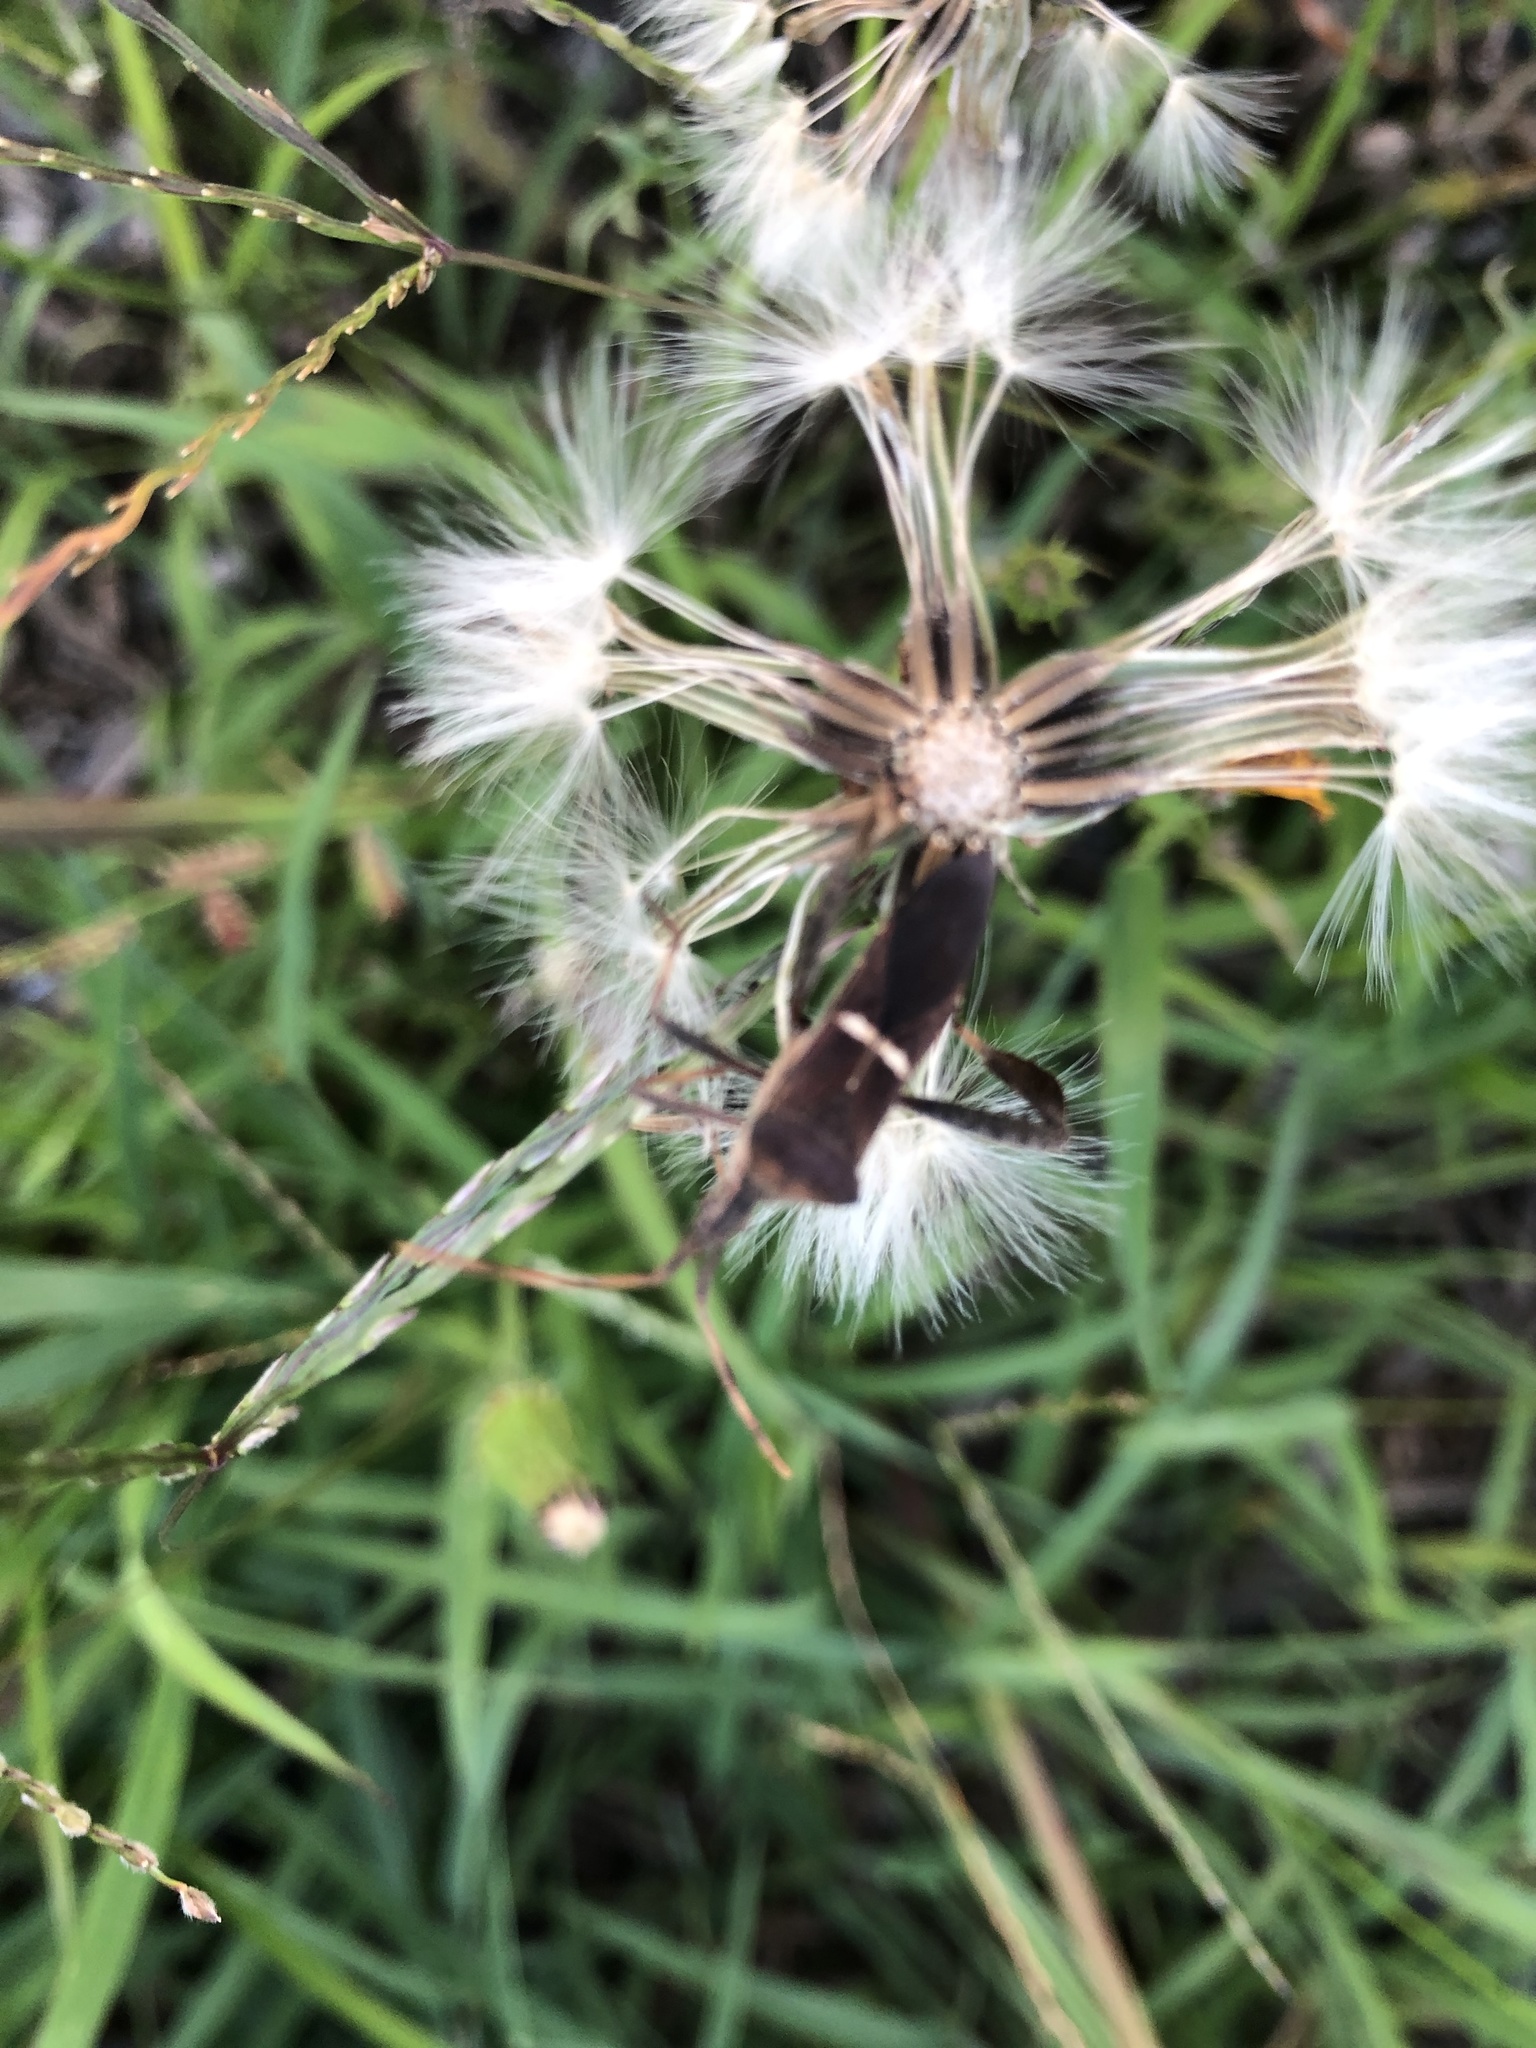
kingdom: Animalia
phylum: Arthropoda
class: Insecta
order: Hemiptera
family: Coreidae
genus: Leptoglossus
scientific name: Leptoglossus phyllopus
